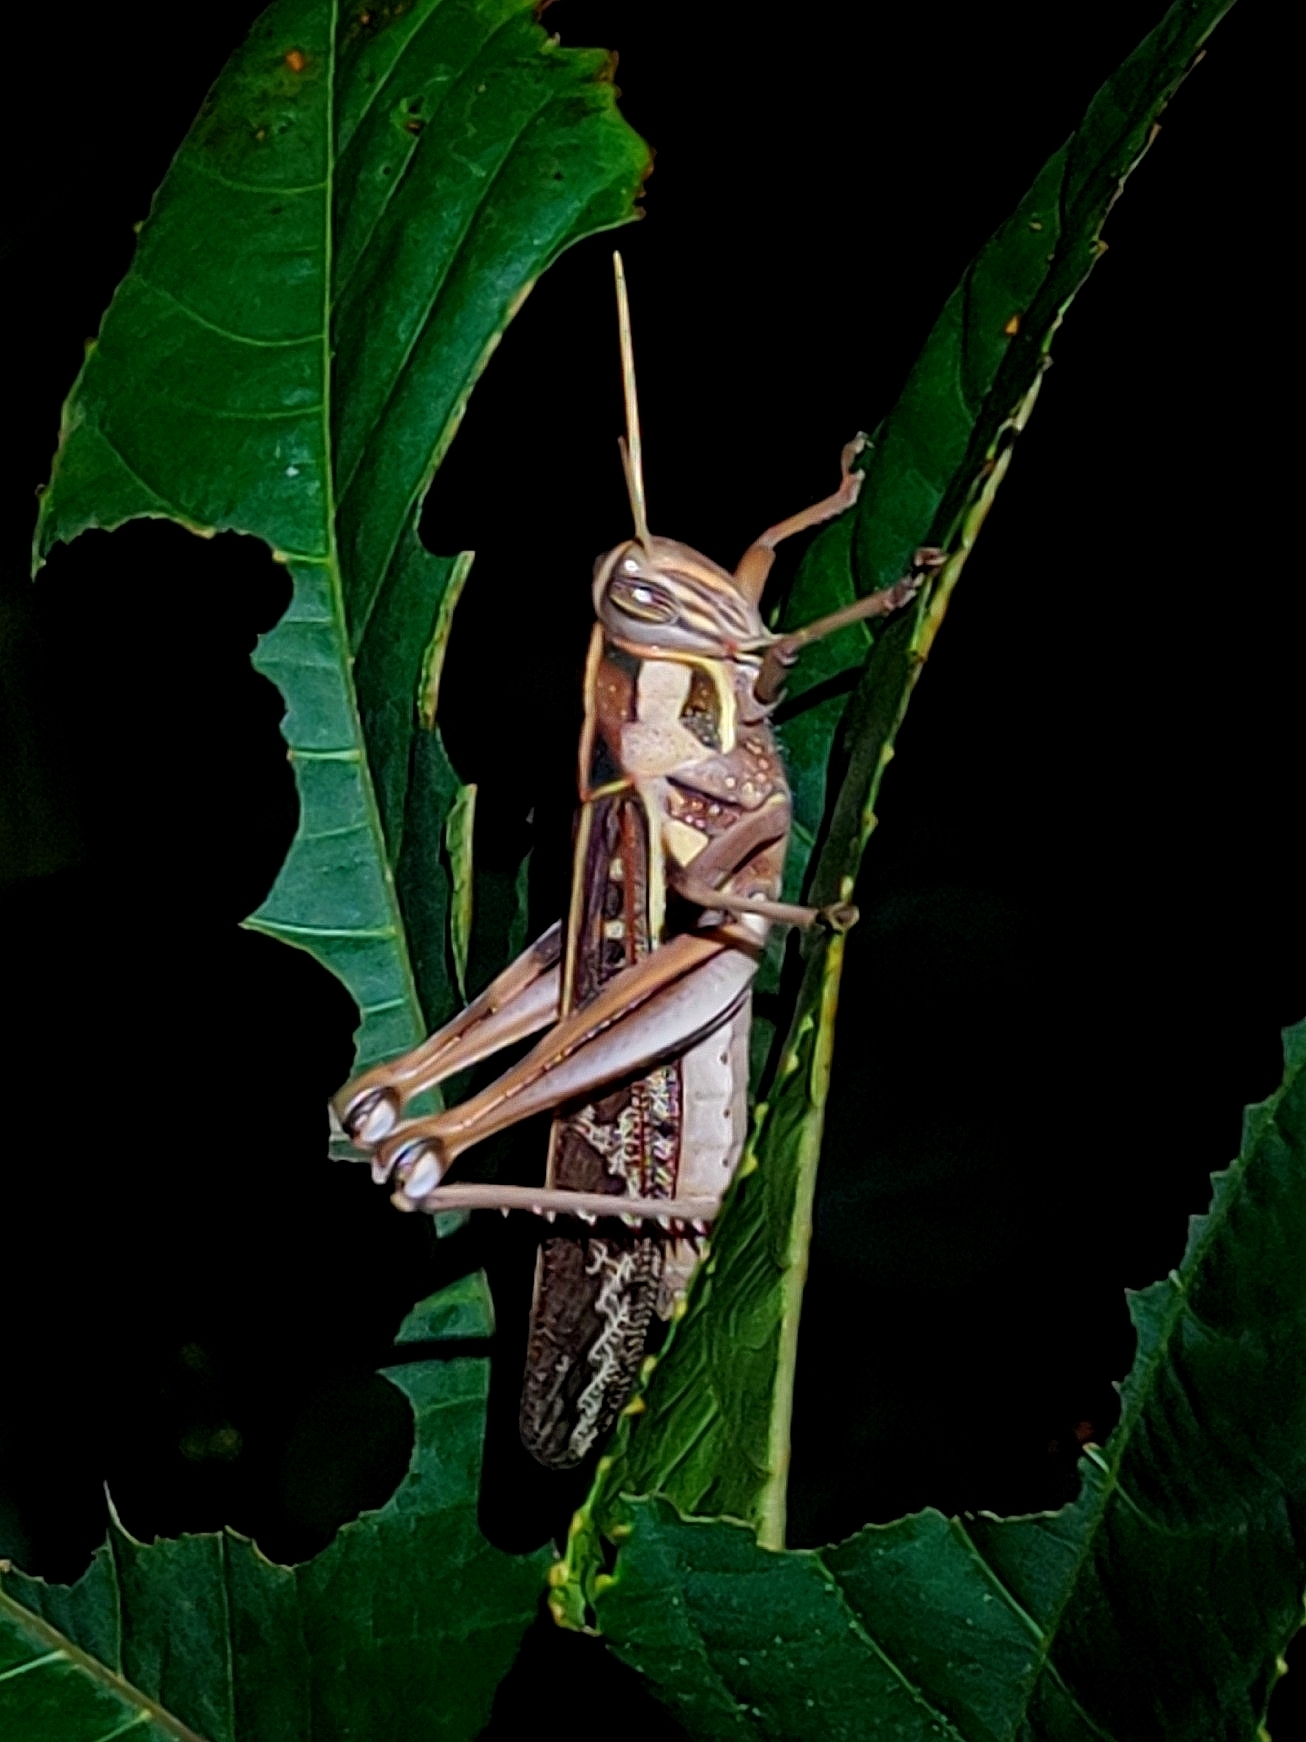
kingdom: Animalia
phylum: Arthropoda
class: Insecta
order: Orthoptera
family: Acrididae
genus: Cyrtacanthacris
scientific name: Cyrtacanthacris tatarica
